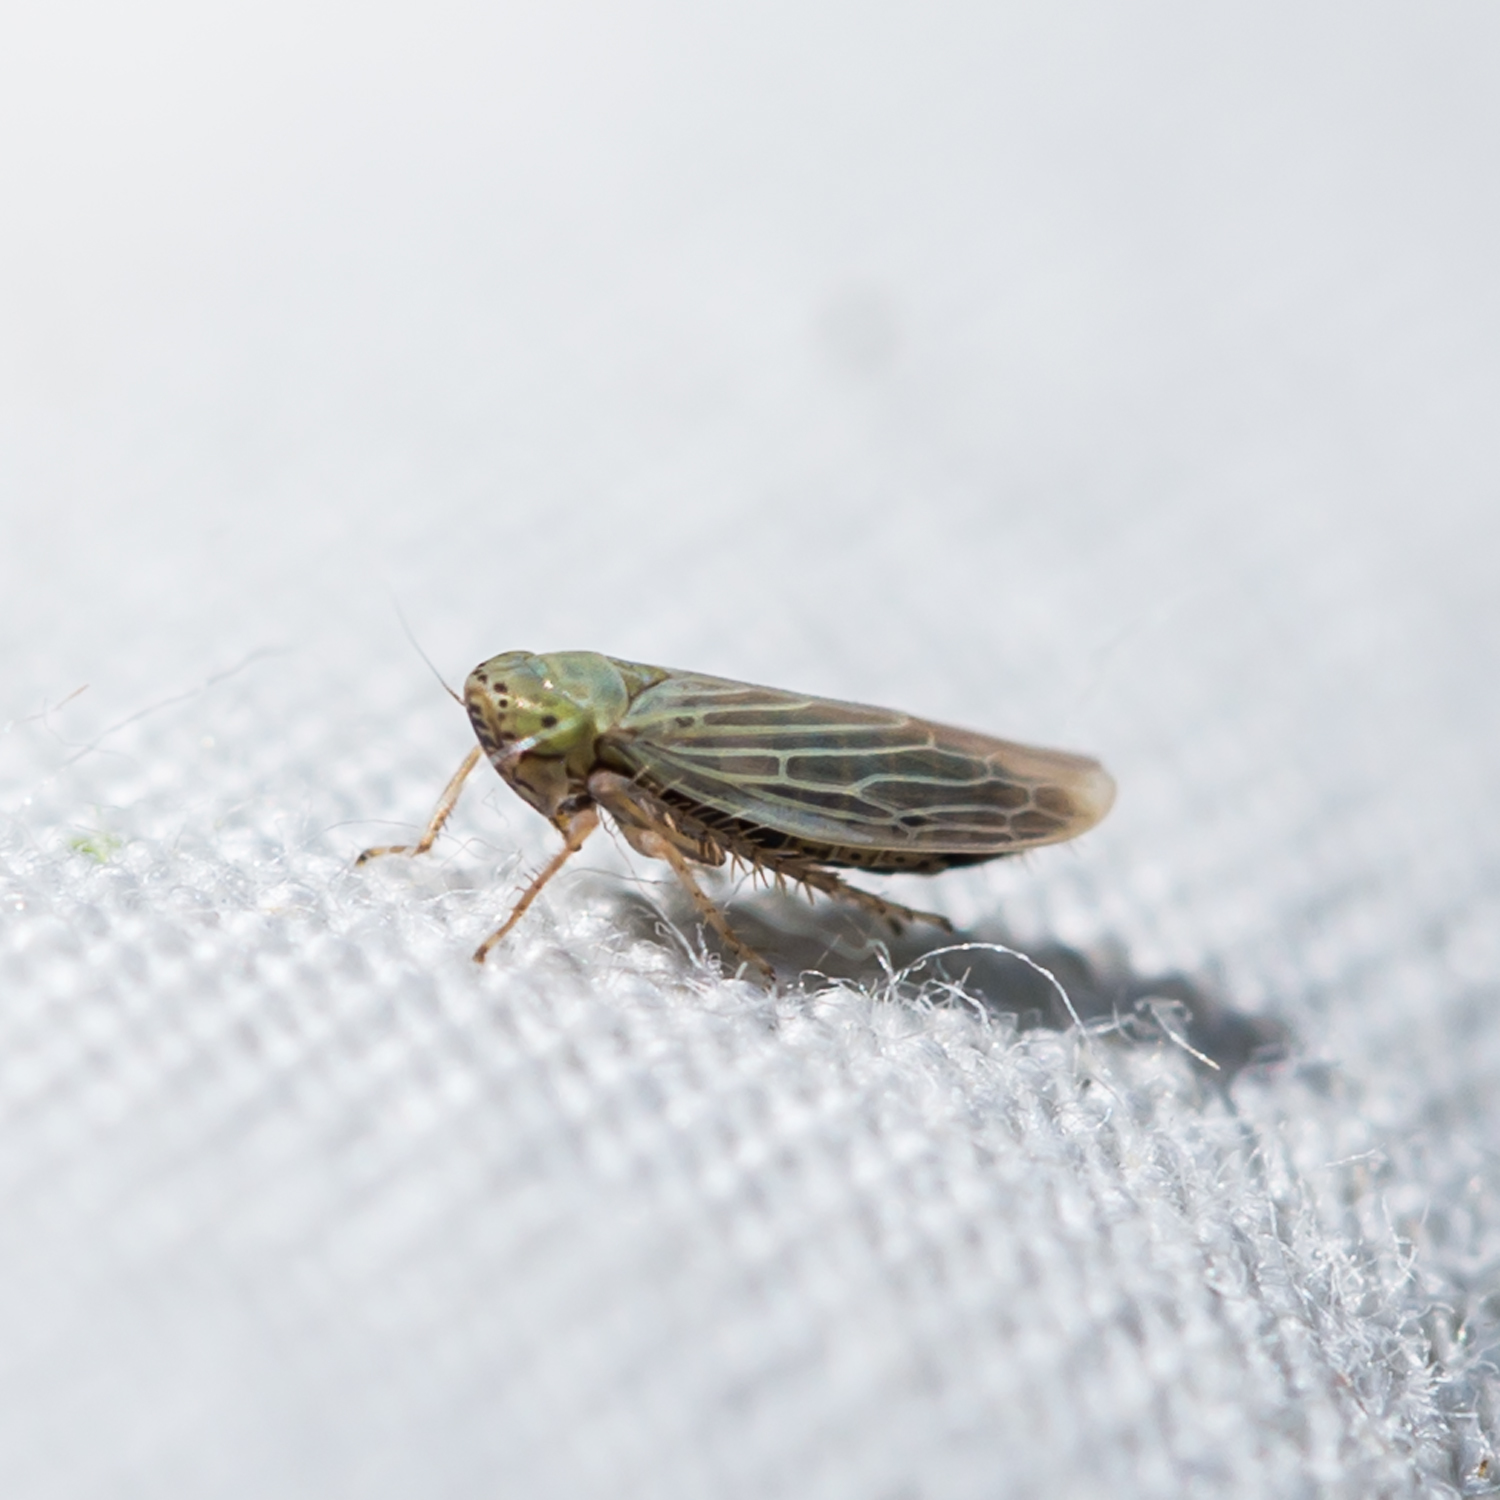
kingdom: Animalia
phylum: Arthropoda
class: Insecta
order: Hemiptera
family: Cicadellidae
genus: Graminella
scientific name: Graminella nigrifrons
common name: Blackfaced leafhopper
